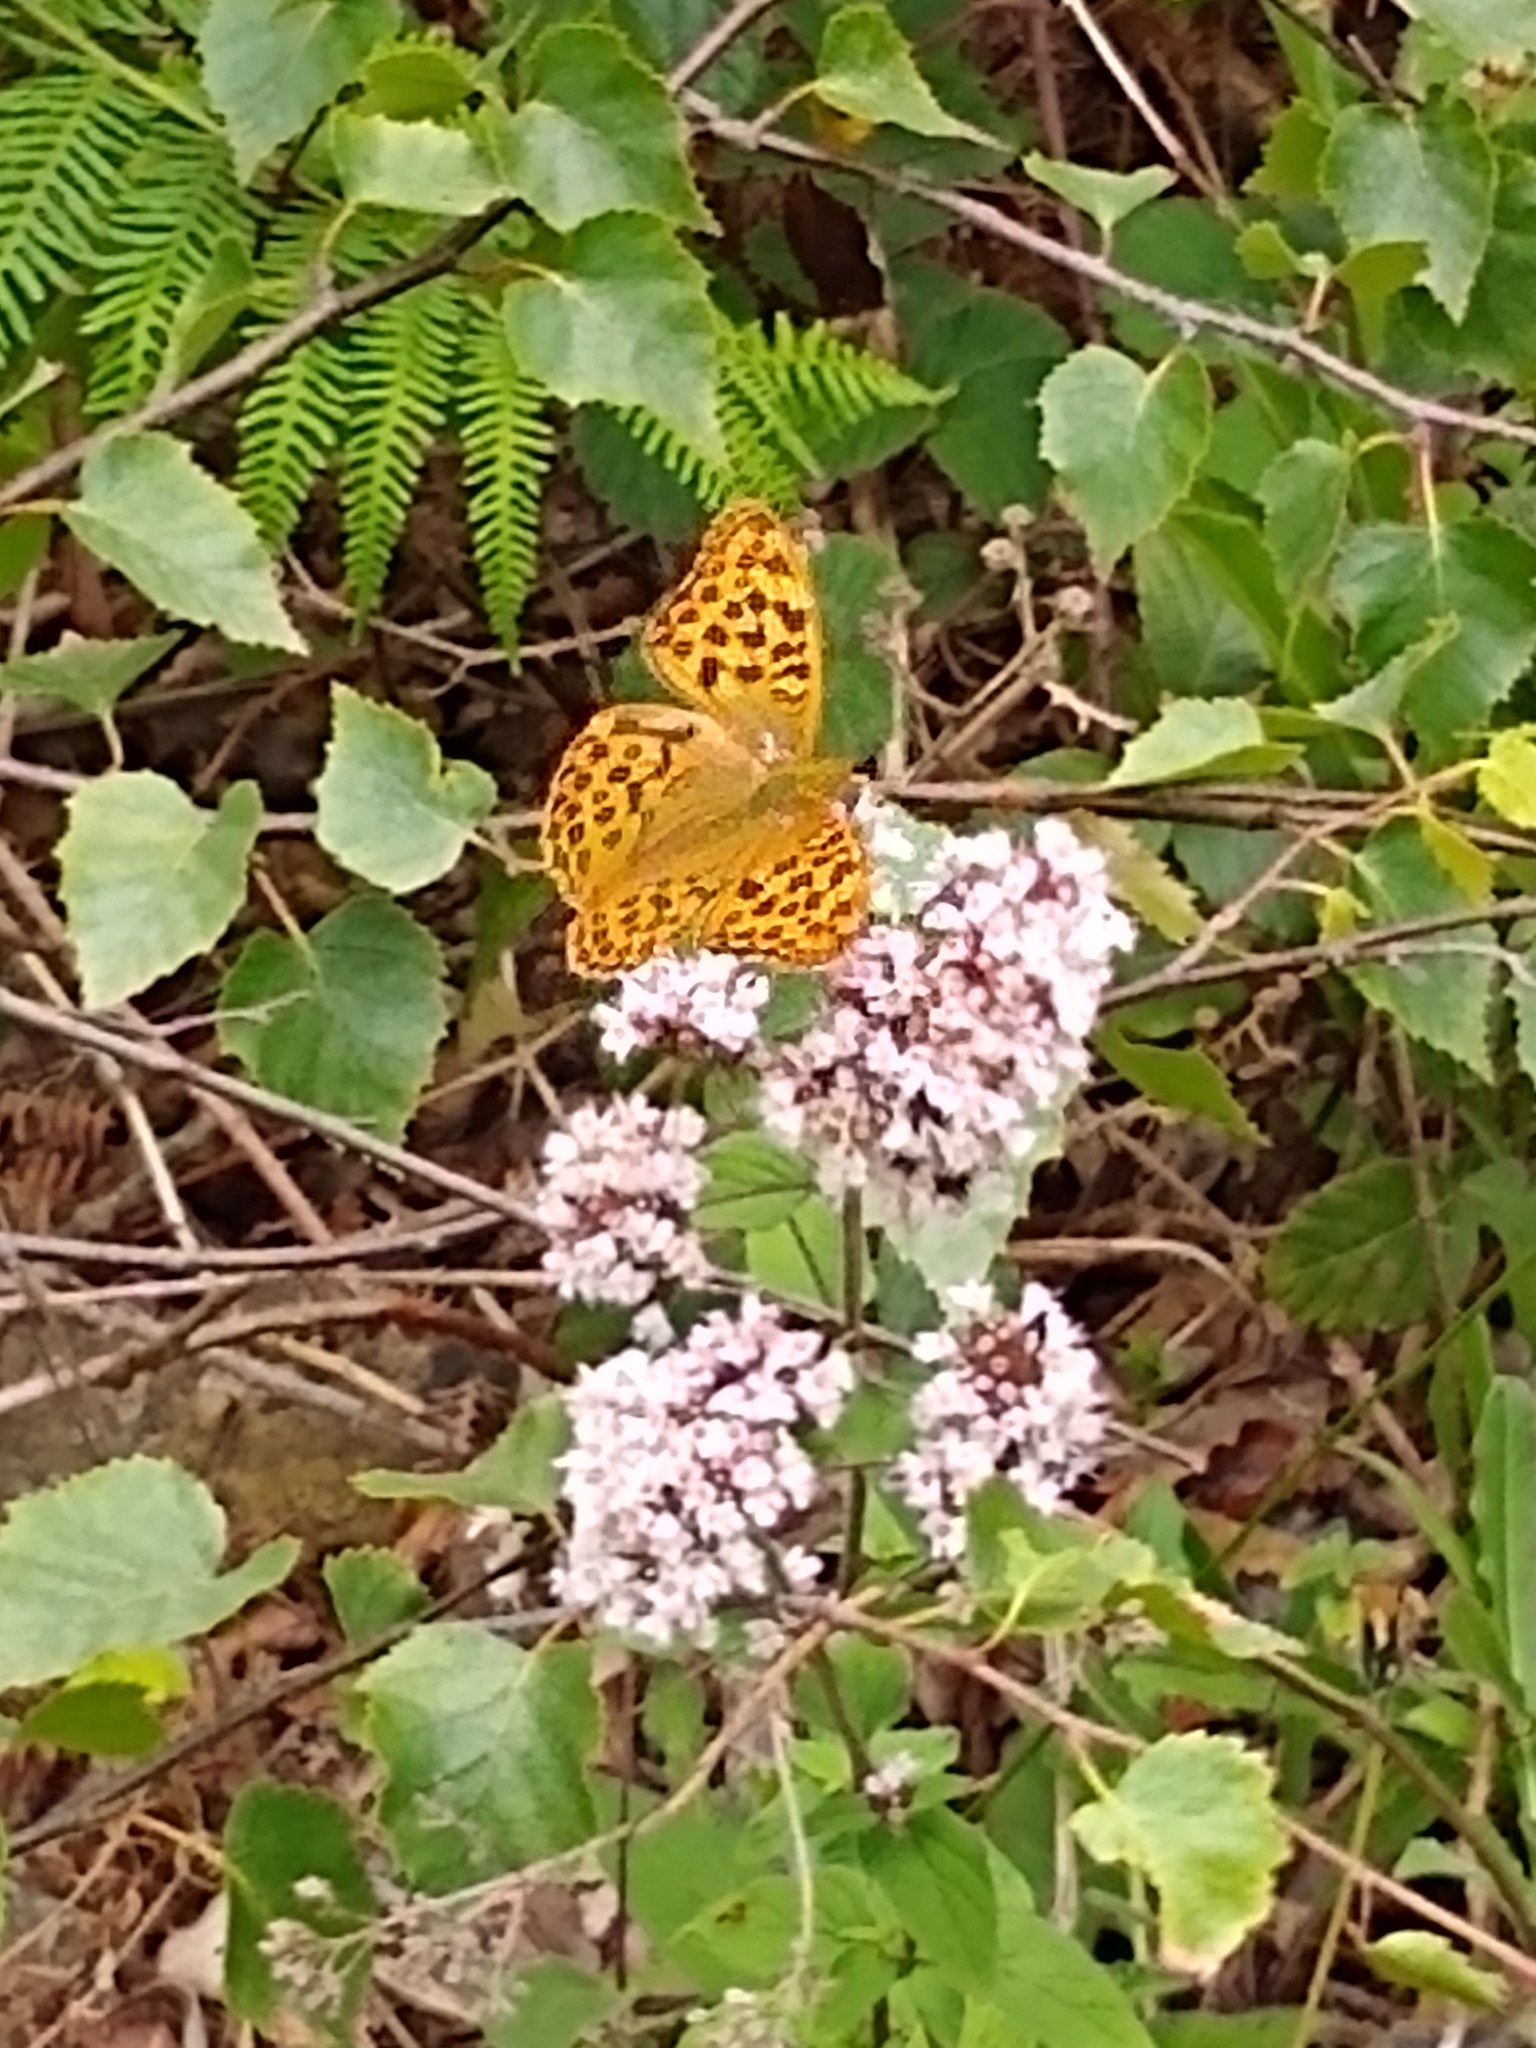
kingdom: Animalia
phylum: Arthropoda
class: Insecta
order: Lepidoptera
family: Nymphalidae
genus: Argynnis
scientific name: Argynnis paphia
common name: Silver-washed fritillary
